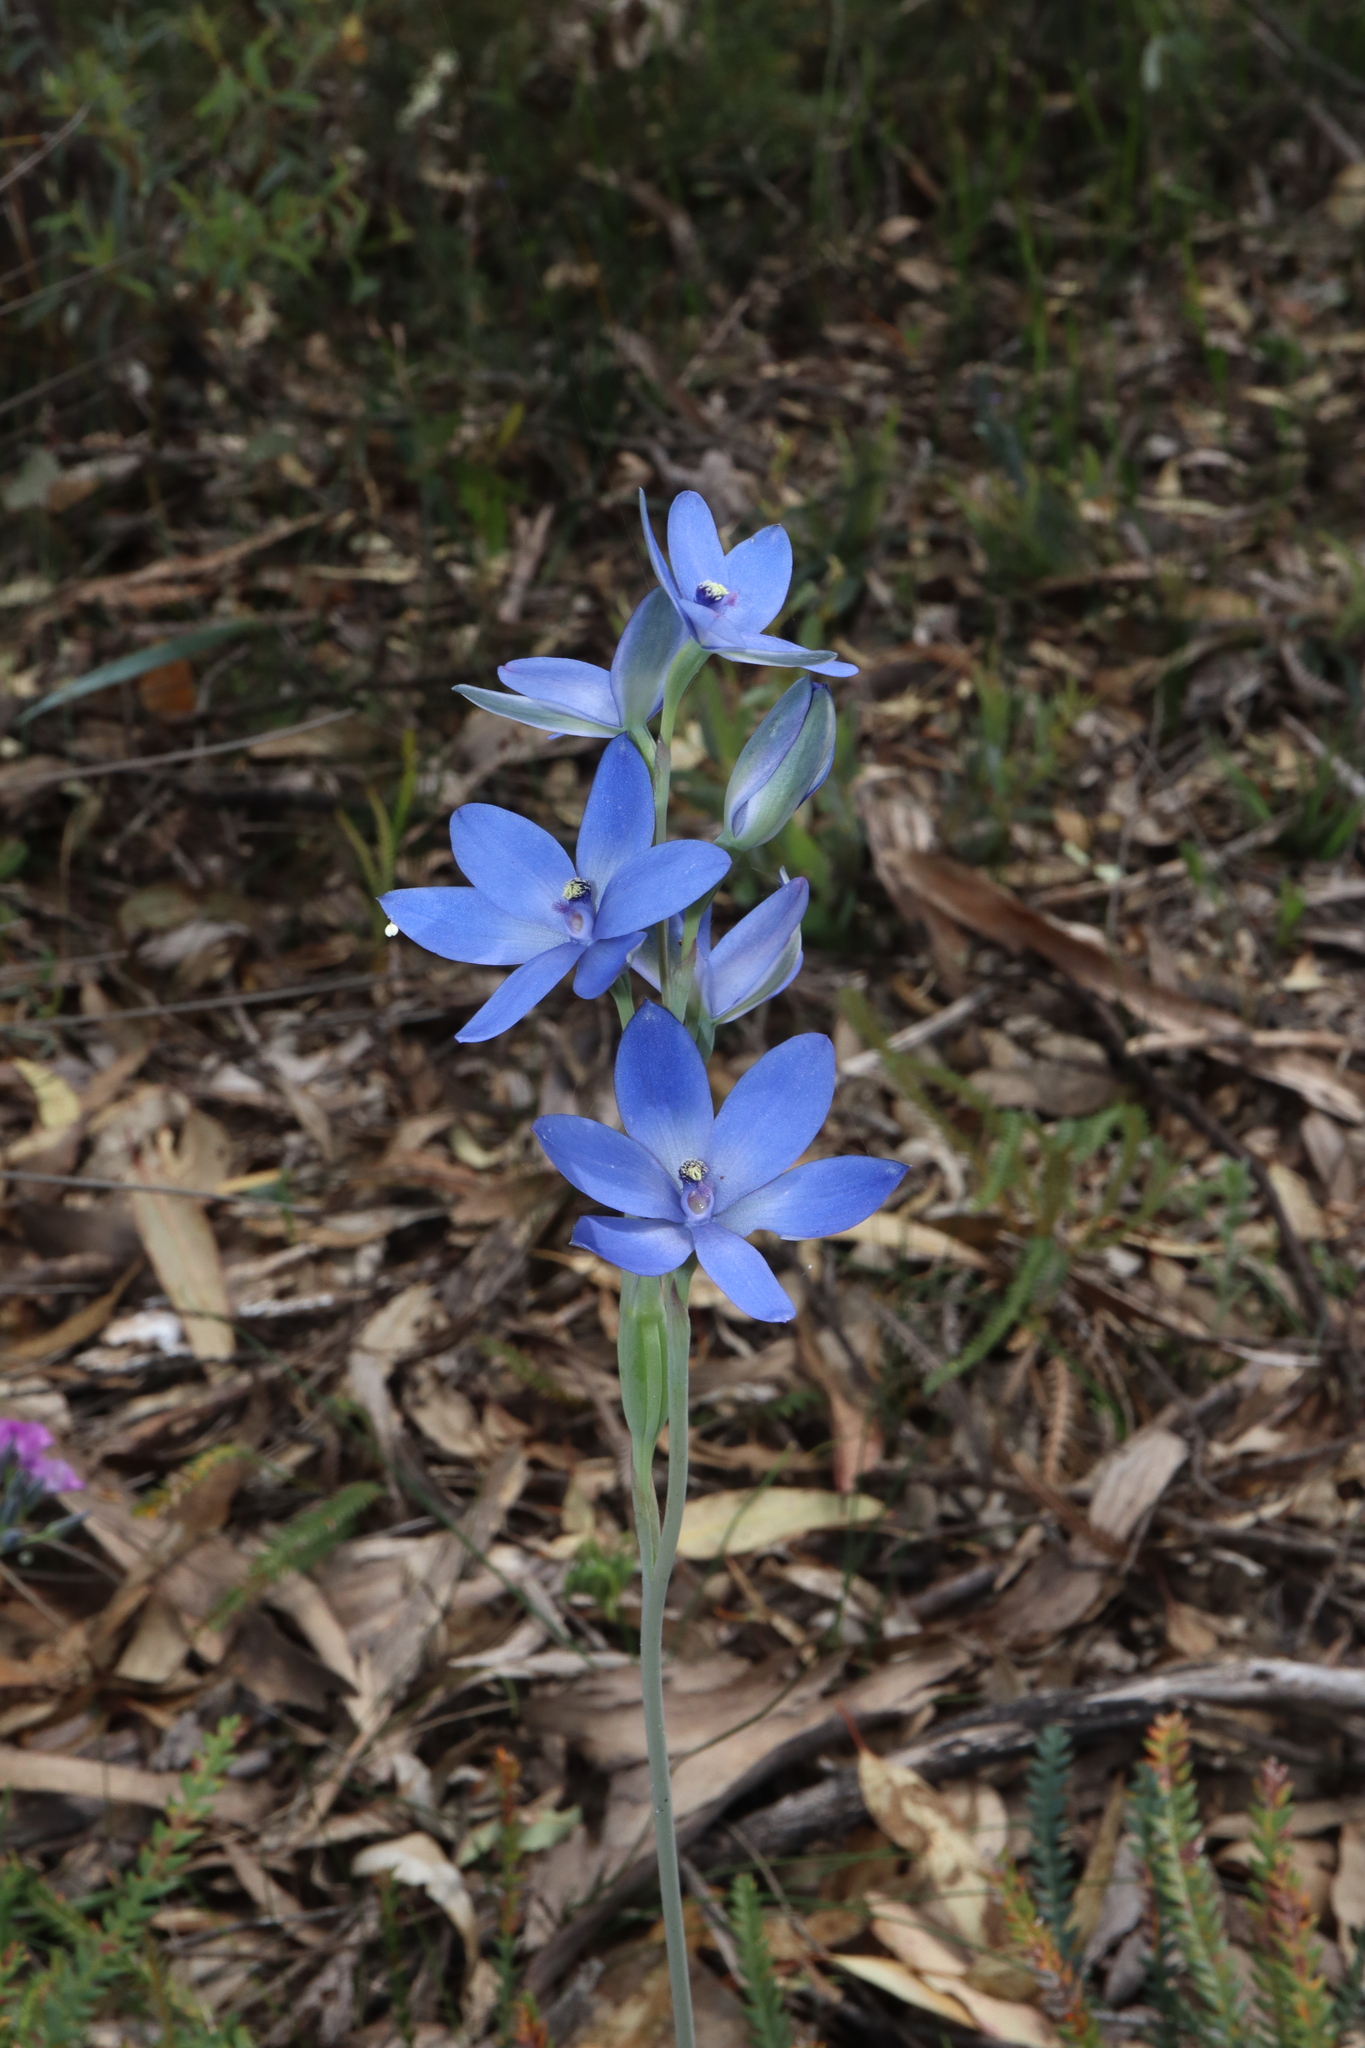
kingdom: Plantae
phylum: Tracheophyta
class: Liliopsida
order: Asparagales
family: Orchidaceae
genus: Thelymitra
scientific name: Thelymitra crinita
